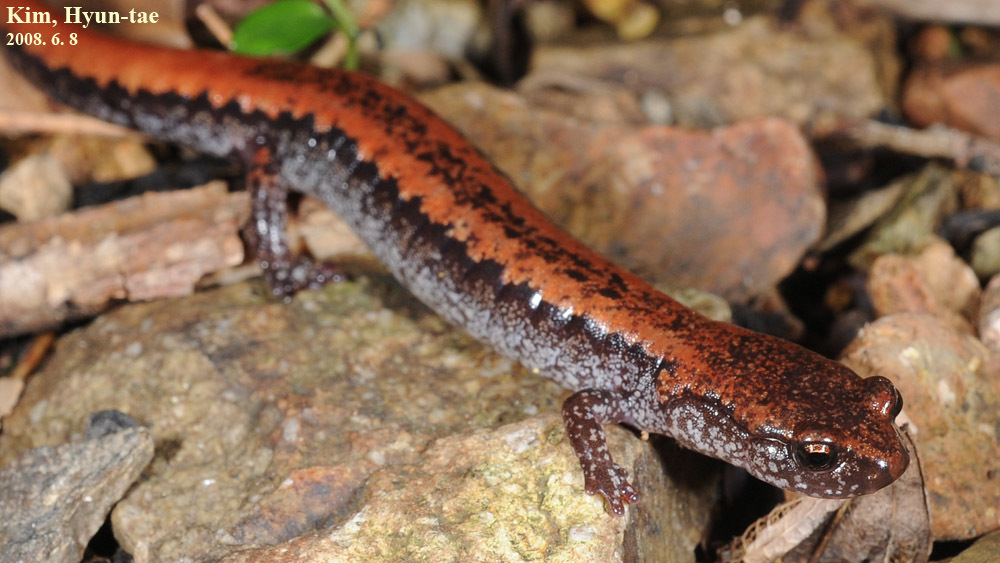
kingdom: Animalia
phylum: Chordata
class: Amphibia
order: Caudata
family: Plethodontidae
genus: Karsenia
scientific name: Karsenia koreana
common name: Korean crevice salamander
